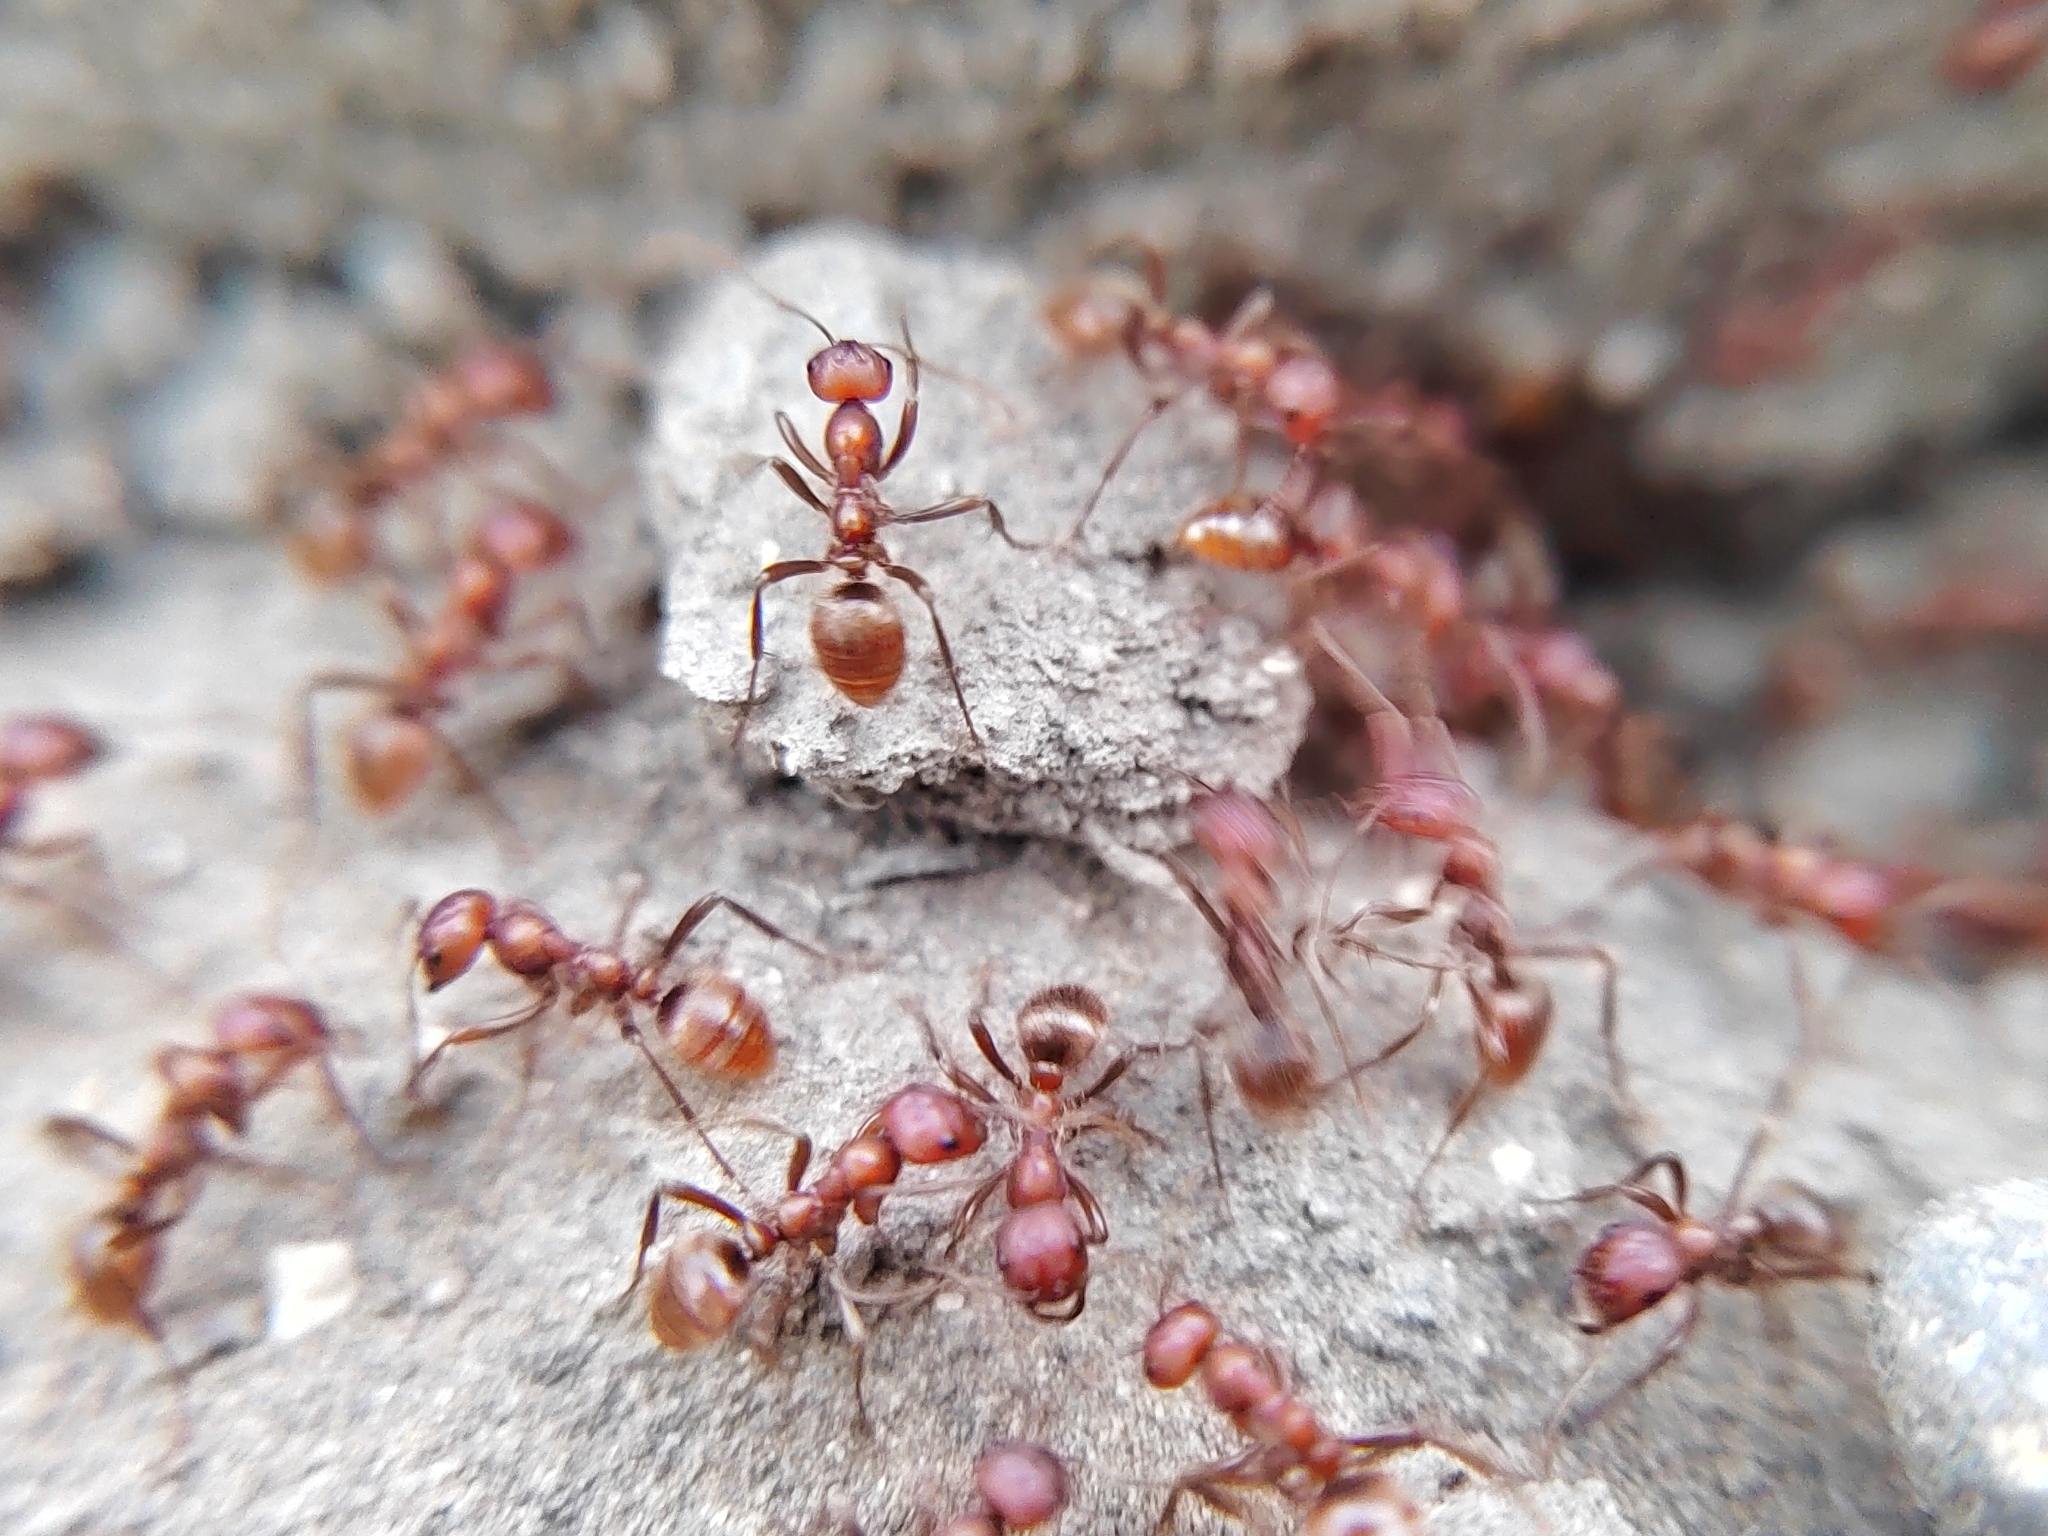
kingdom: Animalia
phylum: Arthropoda
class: Insecta
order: Hymenoptera
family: Formicidae
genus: Formica
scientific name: Formica cinerea
